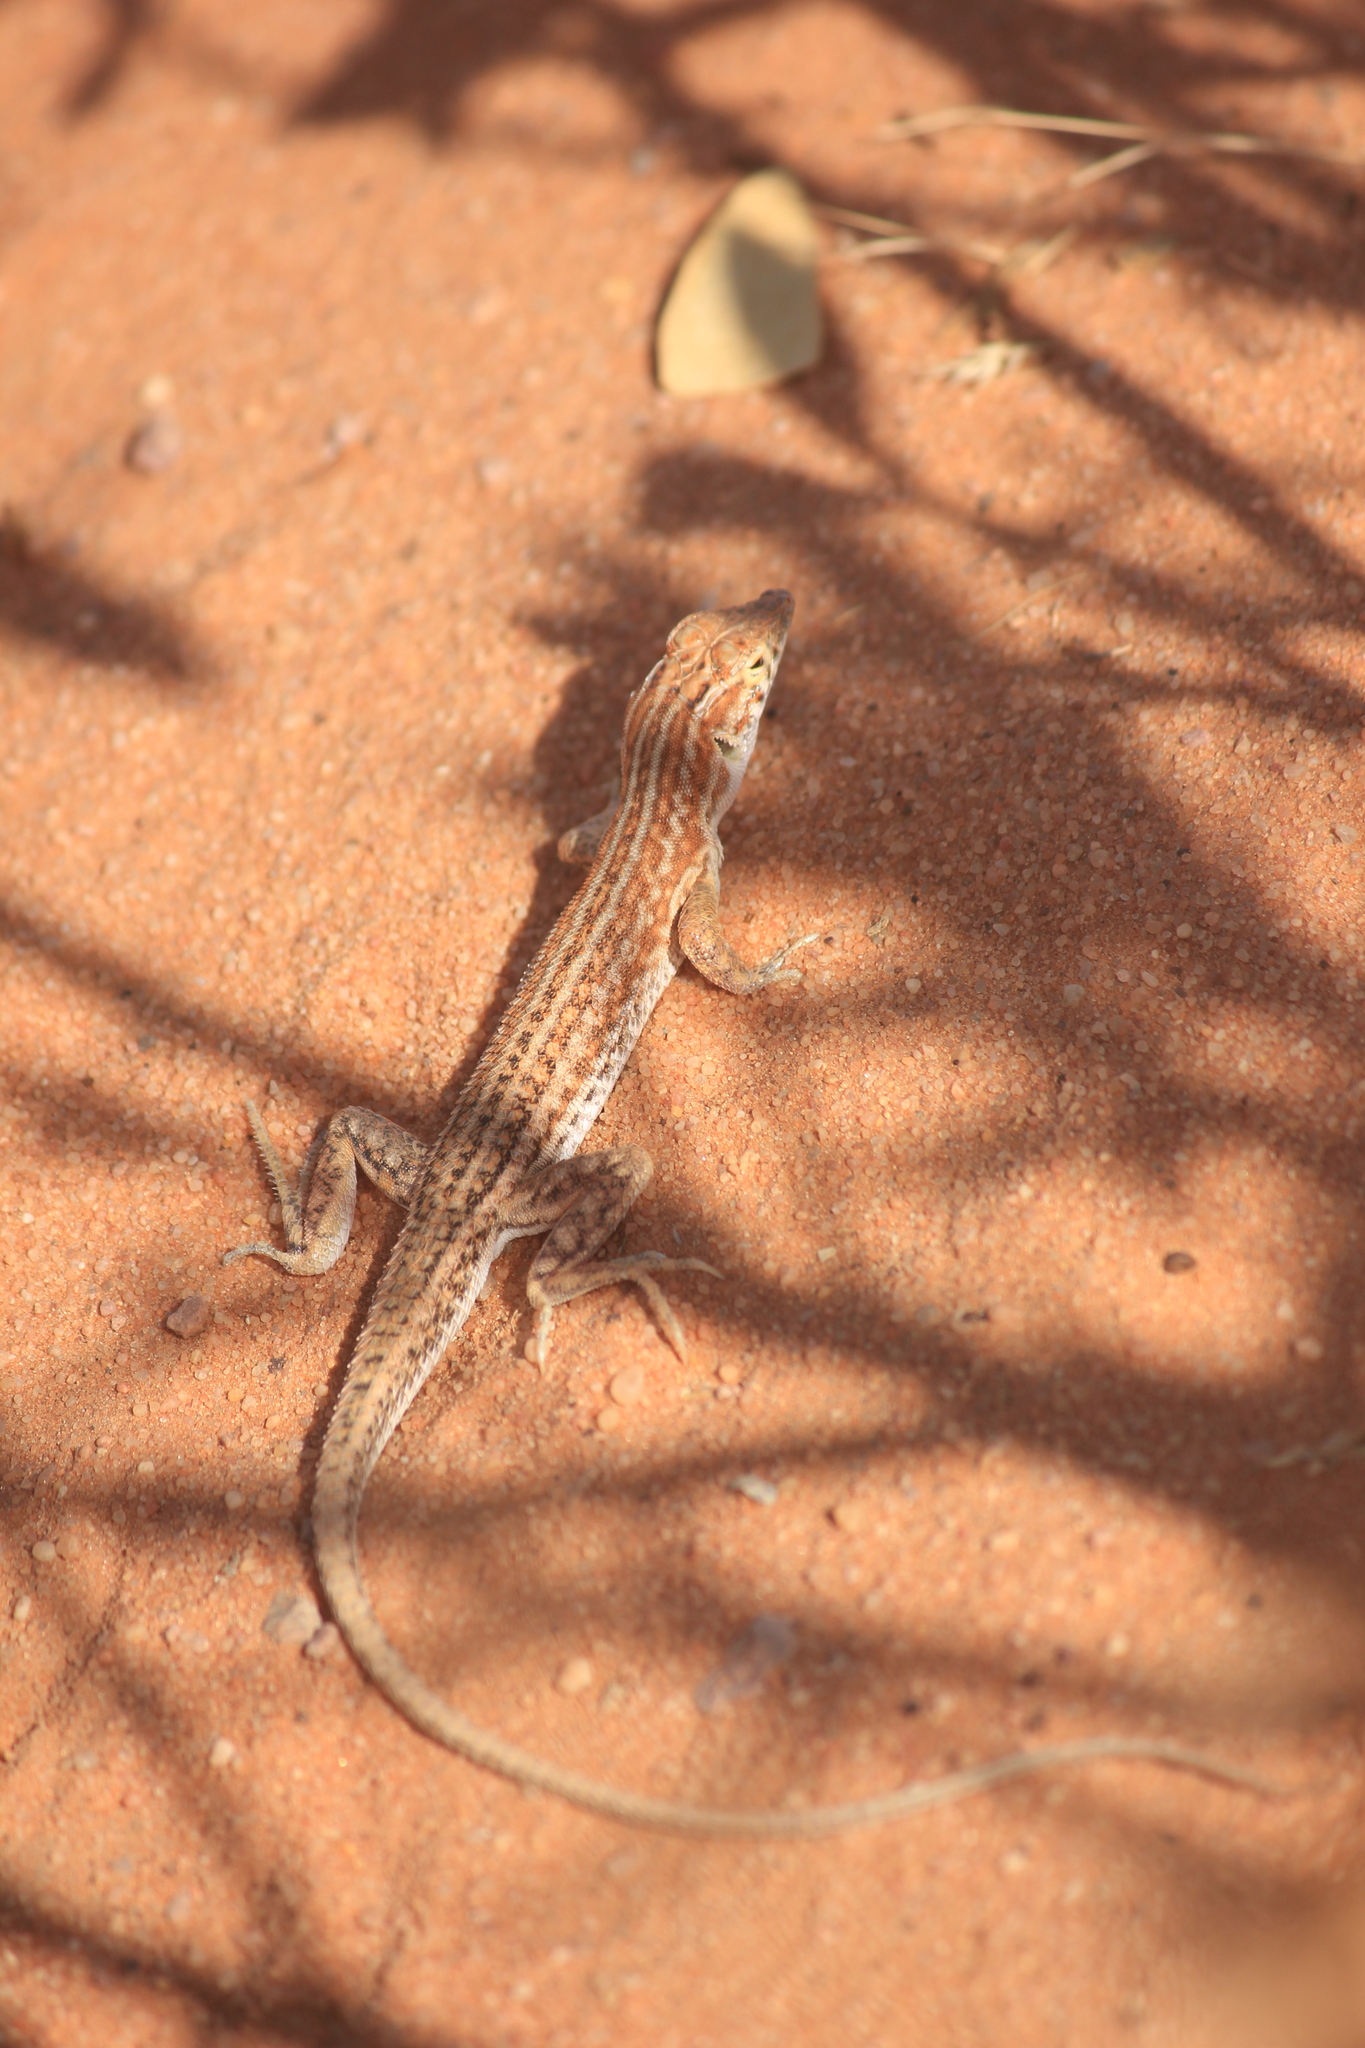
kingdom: Animalia
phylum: Chordata
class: Squamata
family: Lacertidae
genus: Acanthodactylus
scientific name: Acanthodactylus opheodurus
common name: Arnold's fringe-fingered lizard
